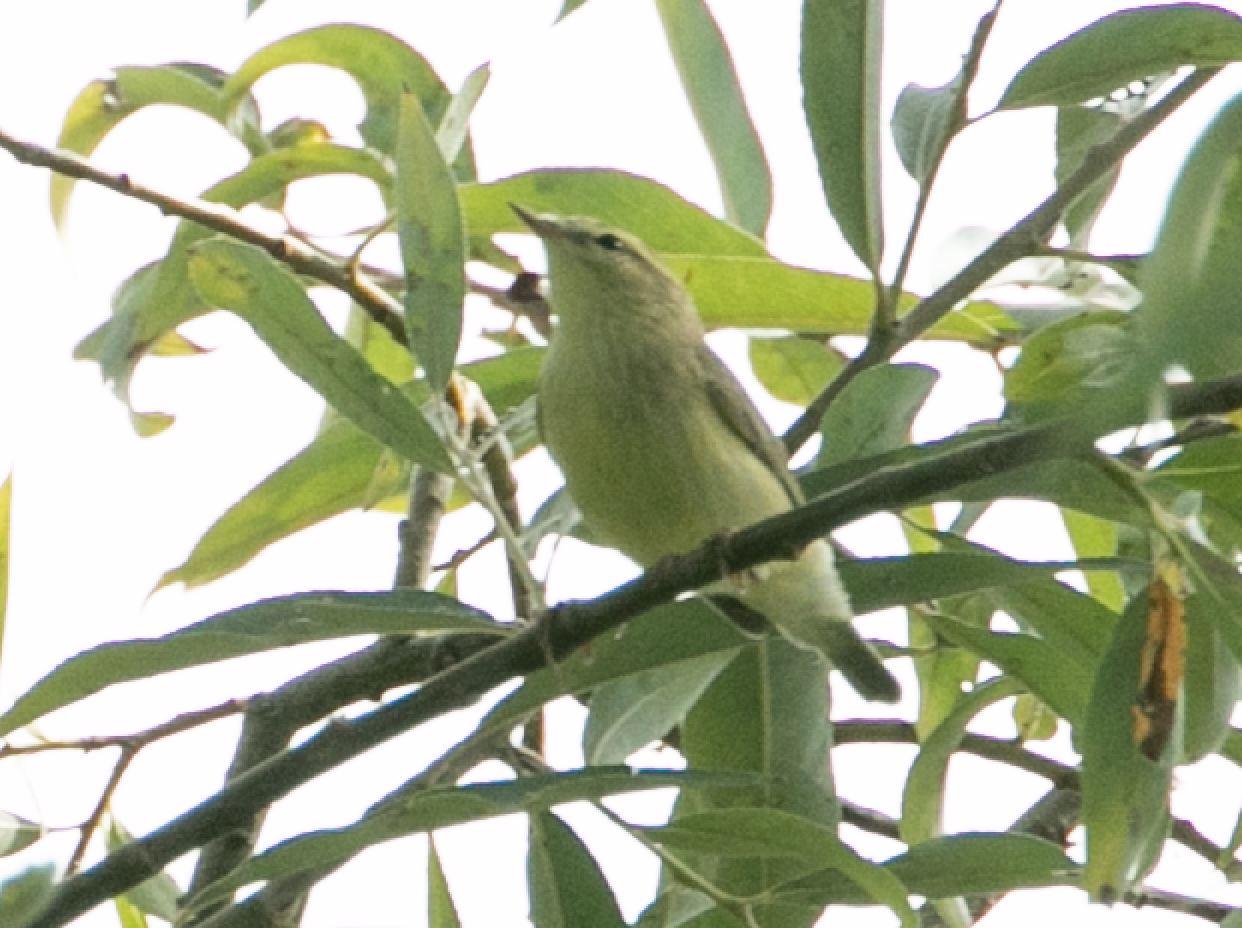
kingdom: Animalia
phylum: Chordata
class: Aves
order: Passeriformes
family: Phylloscopidae
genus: Phylloscopus
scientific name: Phylloscopus trochilus
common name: Willow warbler
